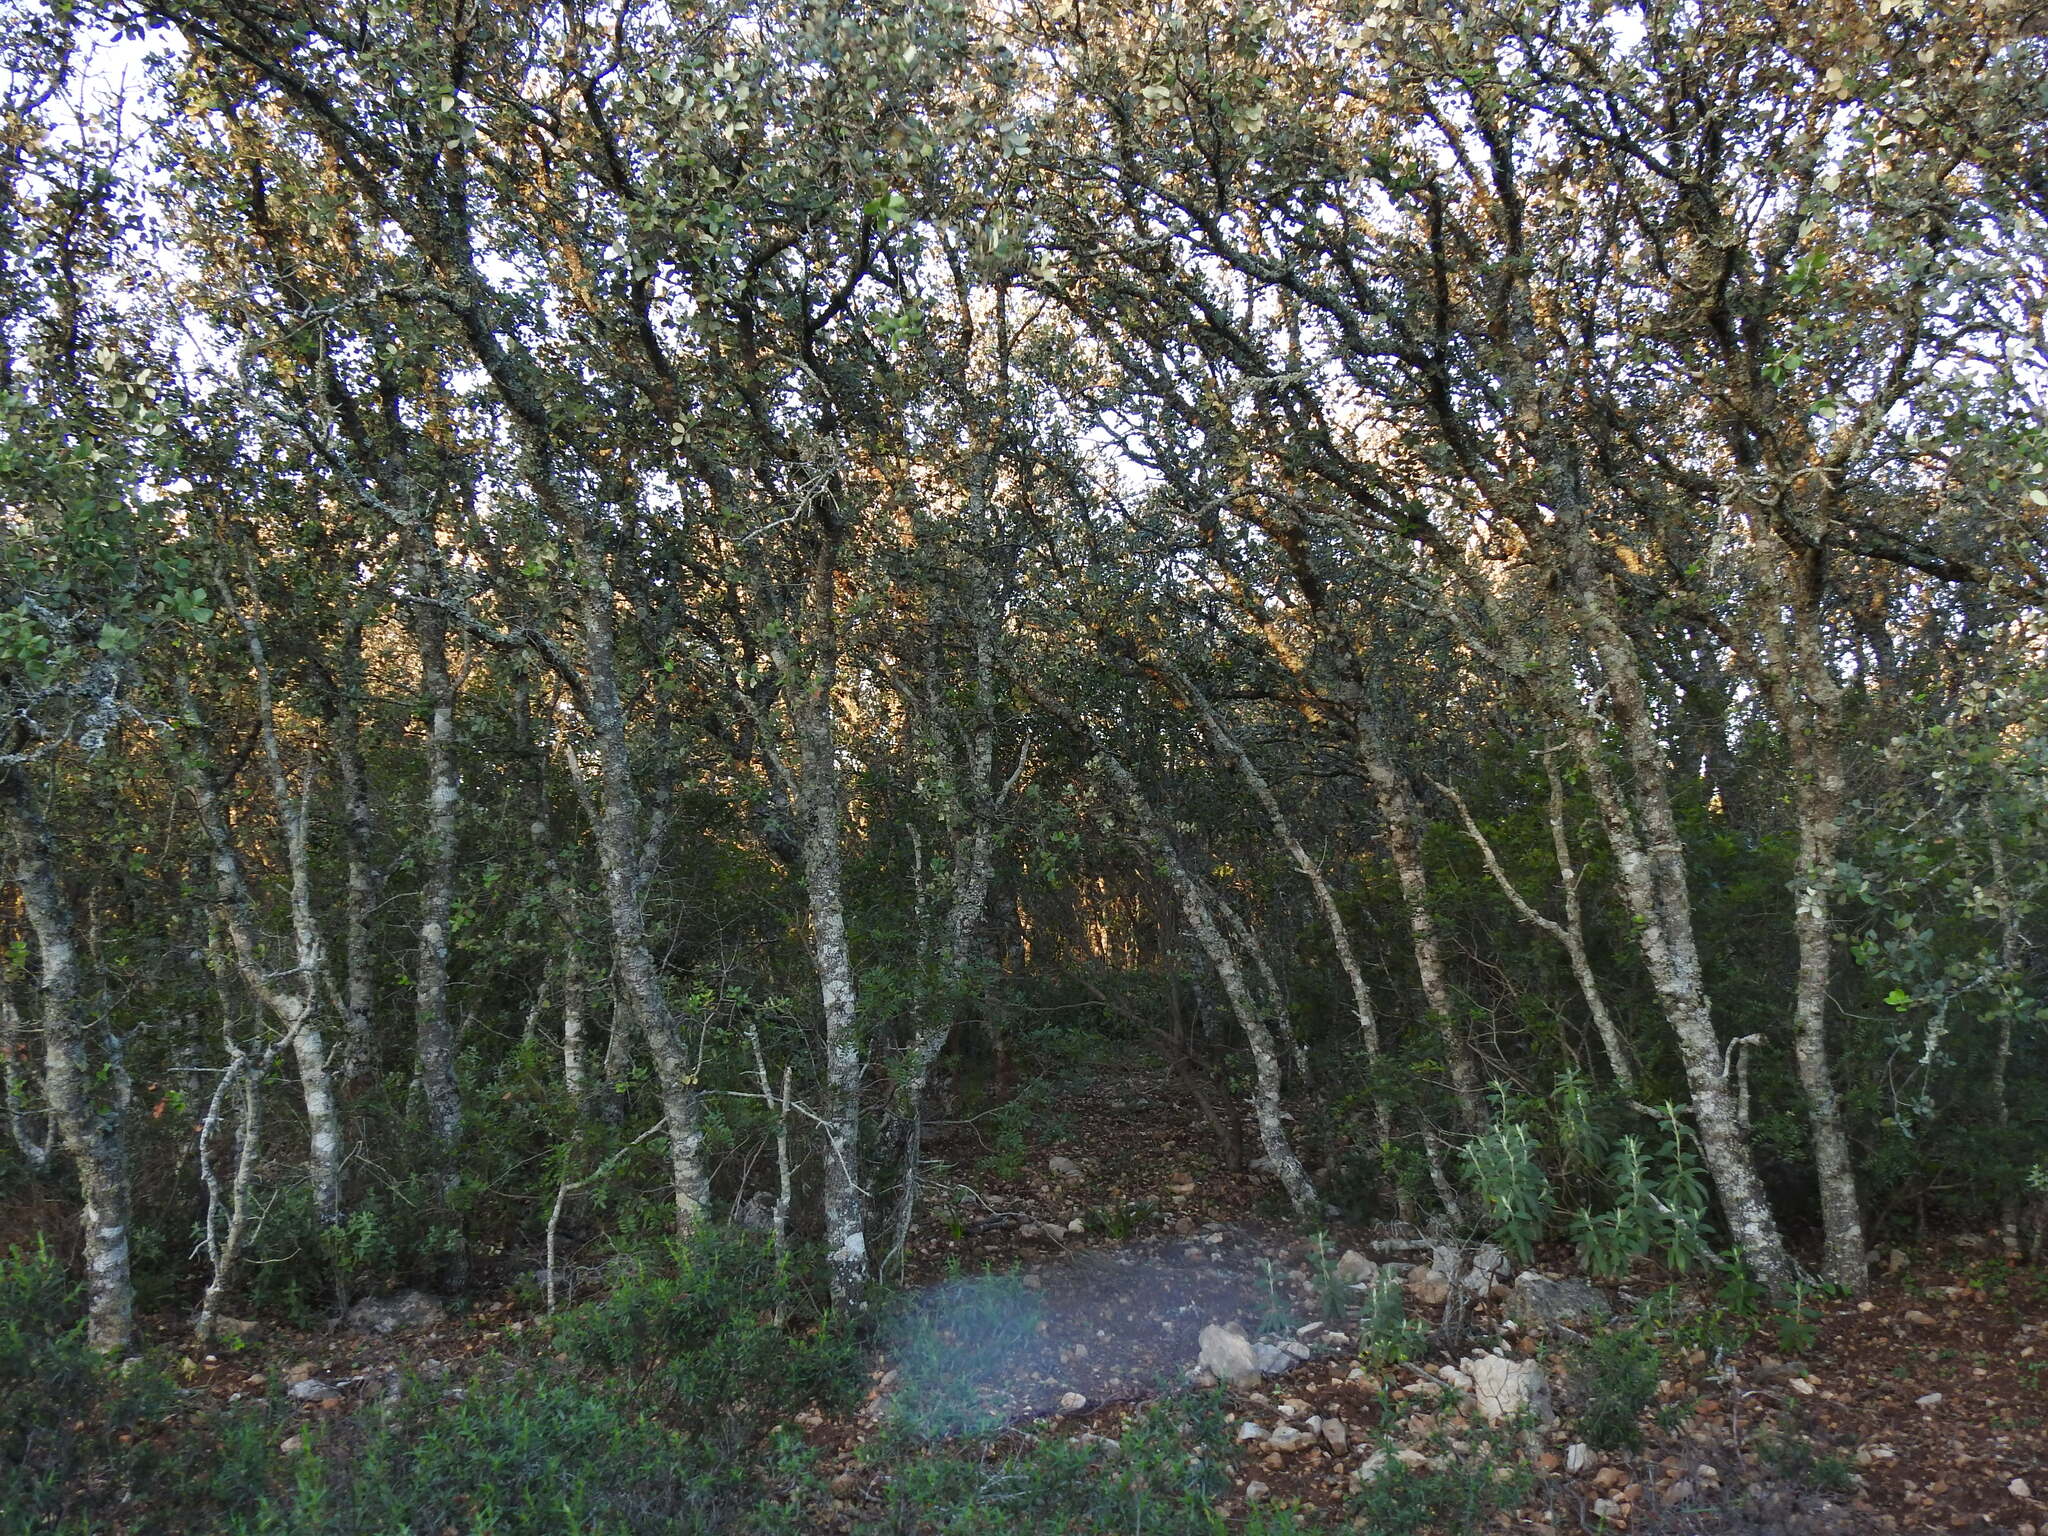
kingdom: Plantae
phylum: Tracheophyta
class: Magnoliopsida
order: Fagales
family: Fagaceae
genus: Quercus
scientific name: Quercus rotundifolia
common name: Holm oak
